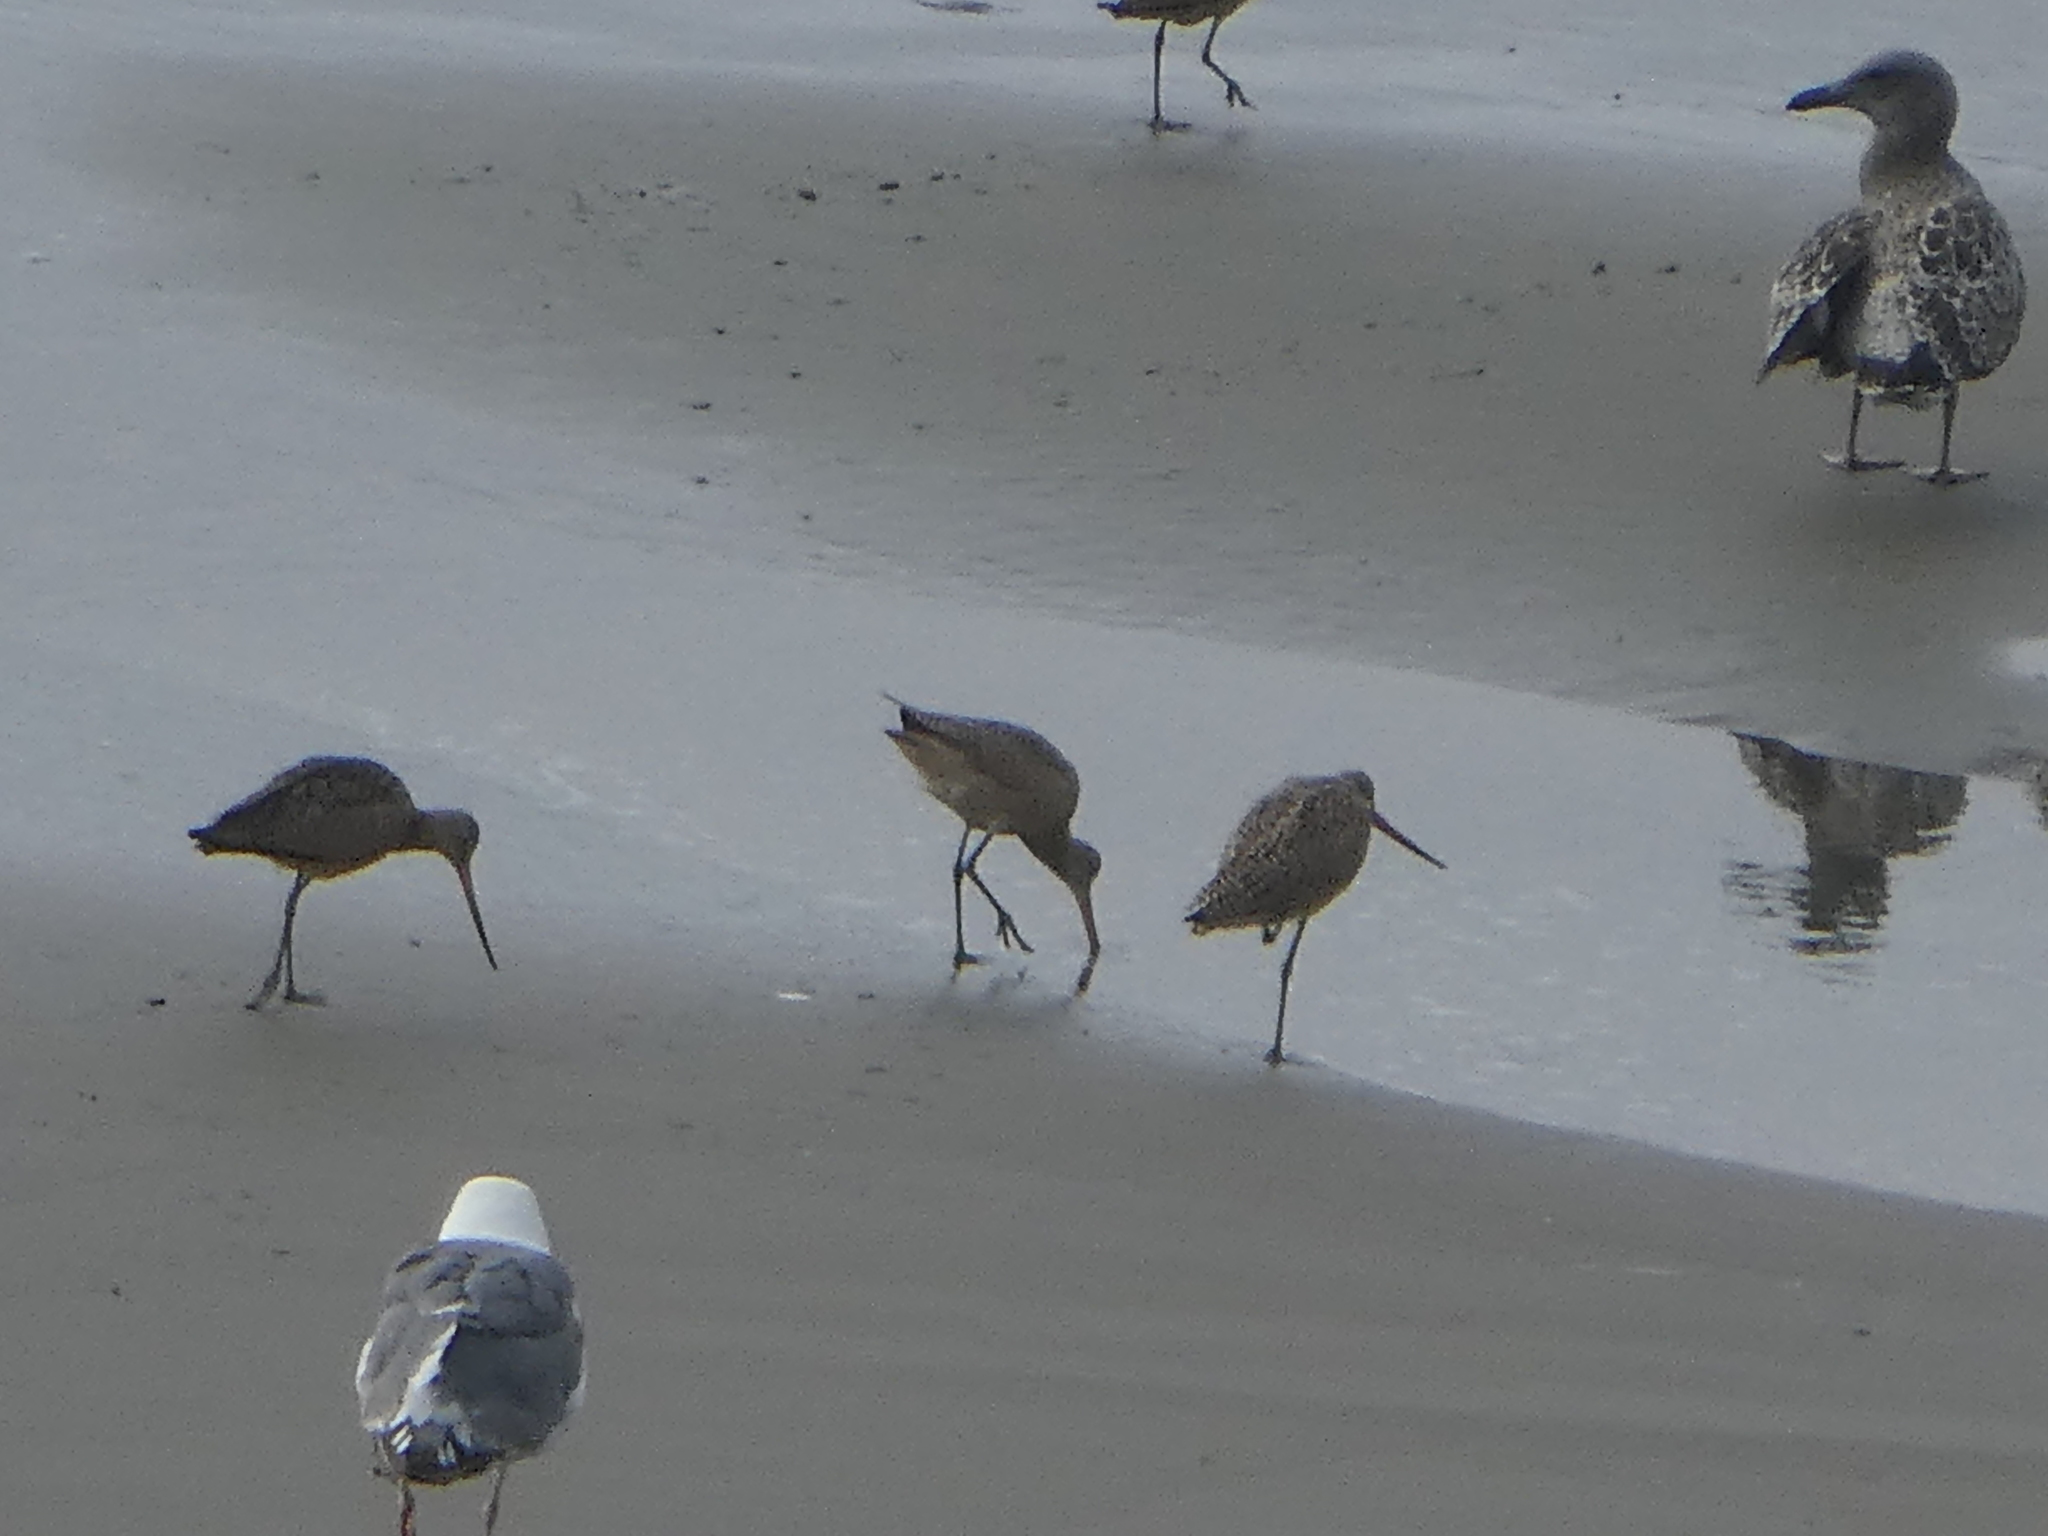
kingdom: Animalia
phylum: Chordata
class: Aves
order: Charadriiformes
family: Scolopacidae
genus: Limosa
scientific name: Limosa fedoa
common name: Marbled godwit
